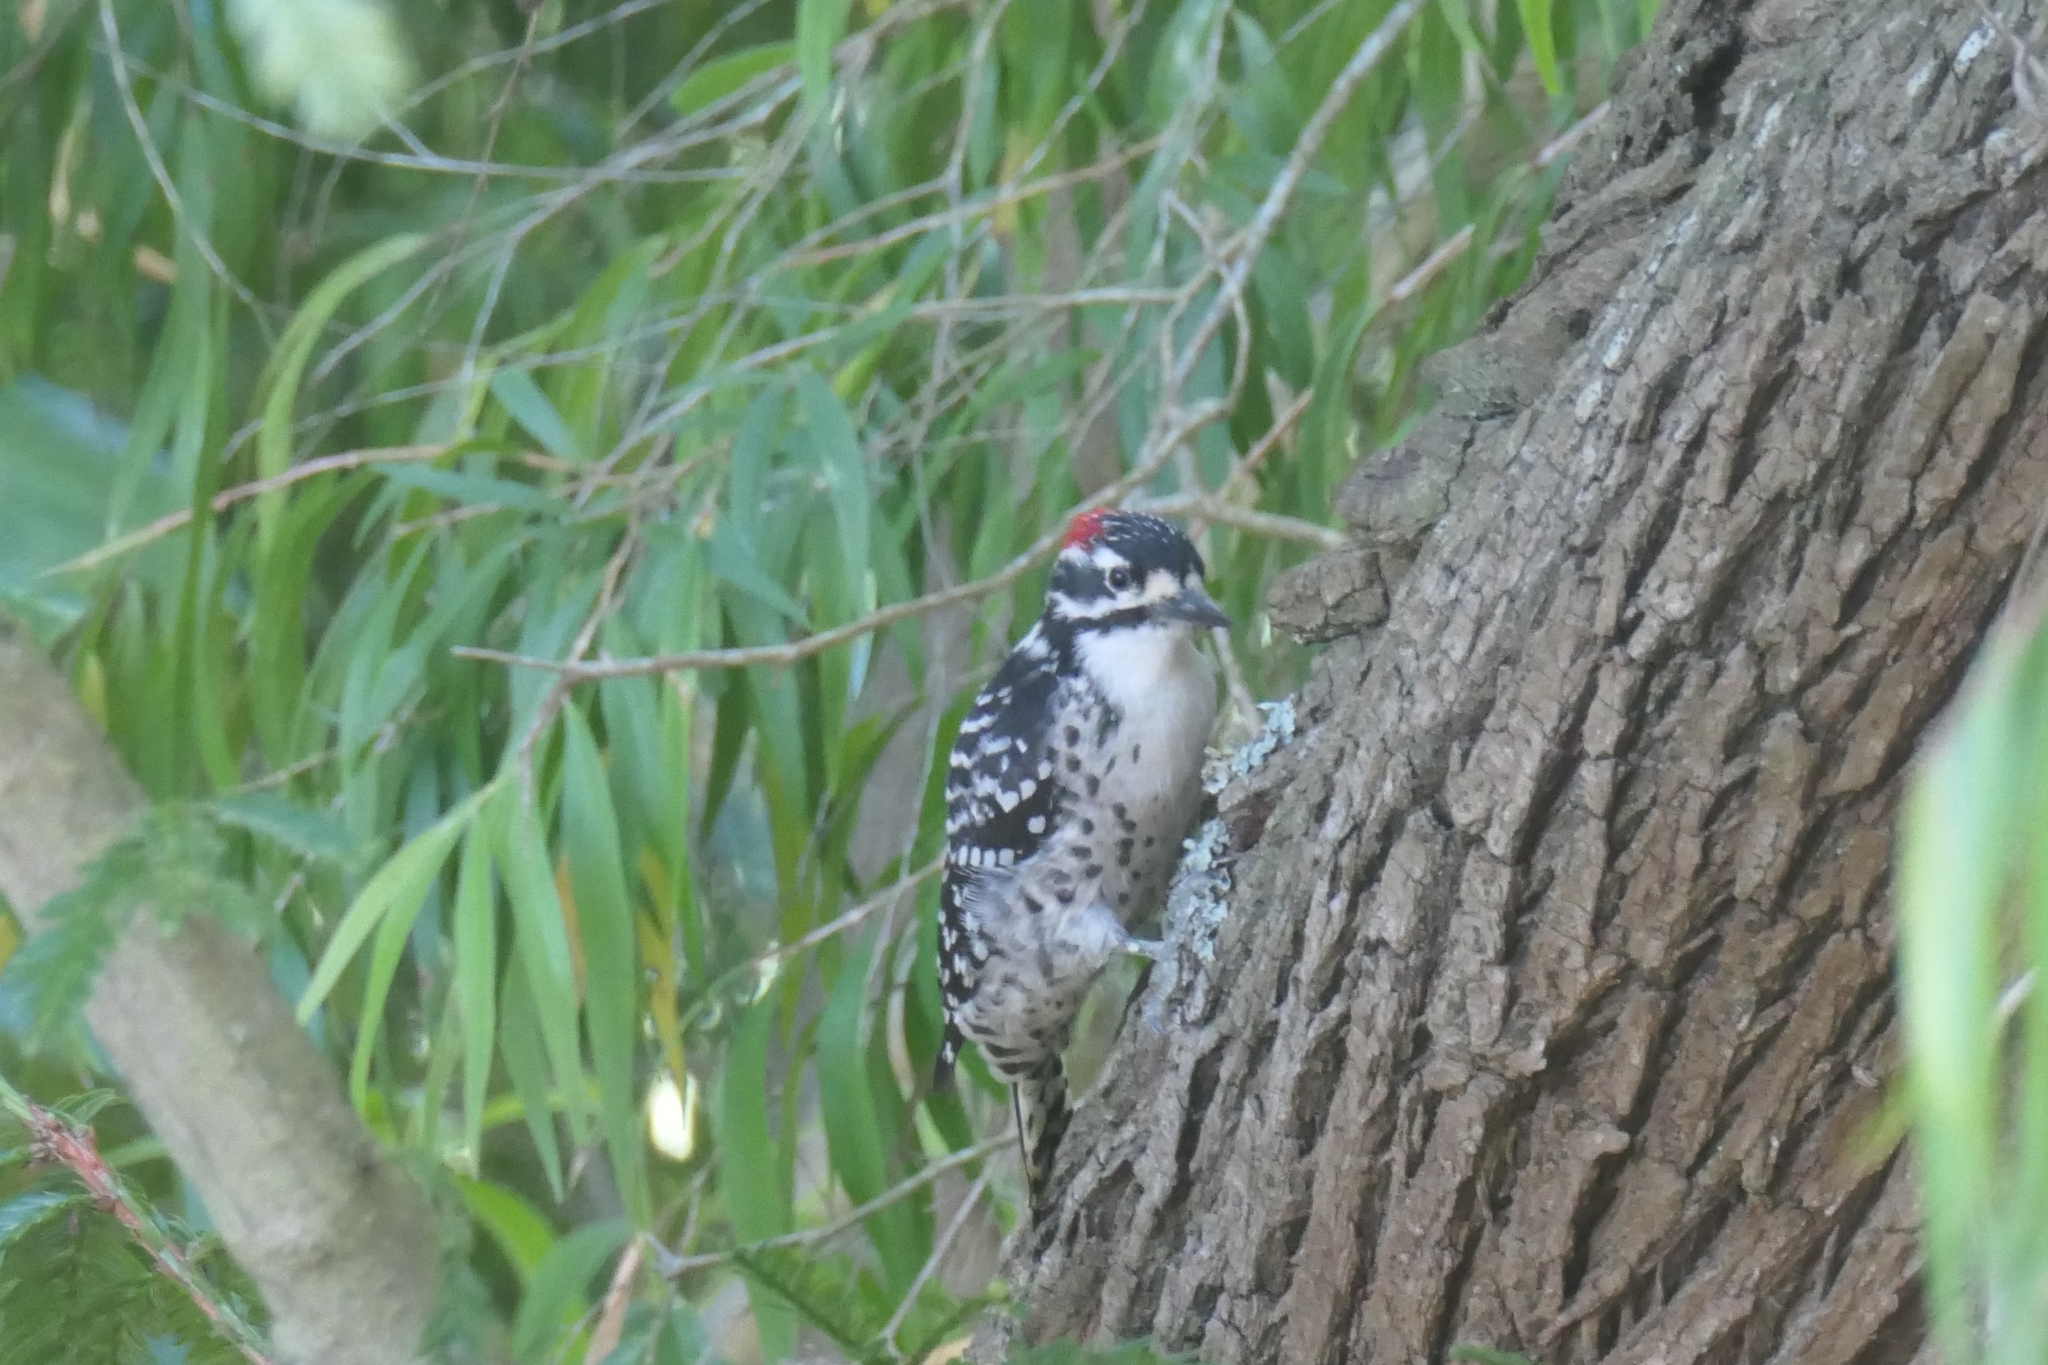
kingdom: Animalia
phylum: Chordata
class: Aves
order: Piciformes
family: Picidae
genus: Dryobates
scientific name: Dryobates nuttallii
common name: Nuttall's woodpecker
